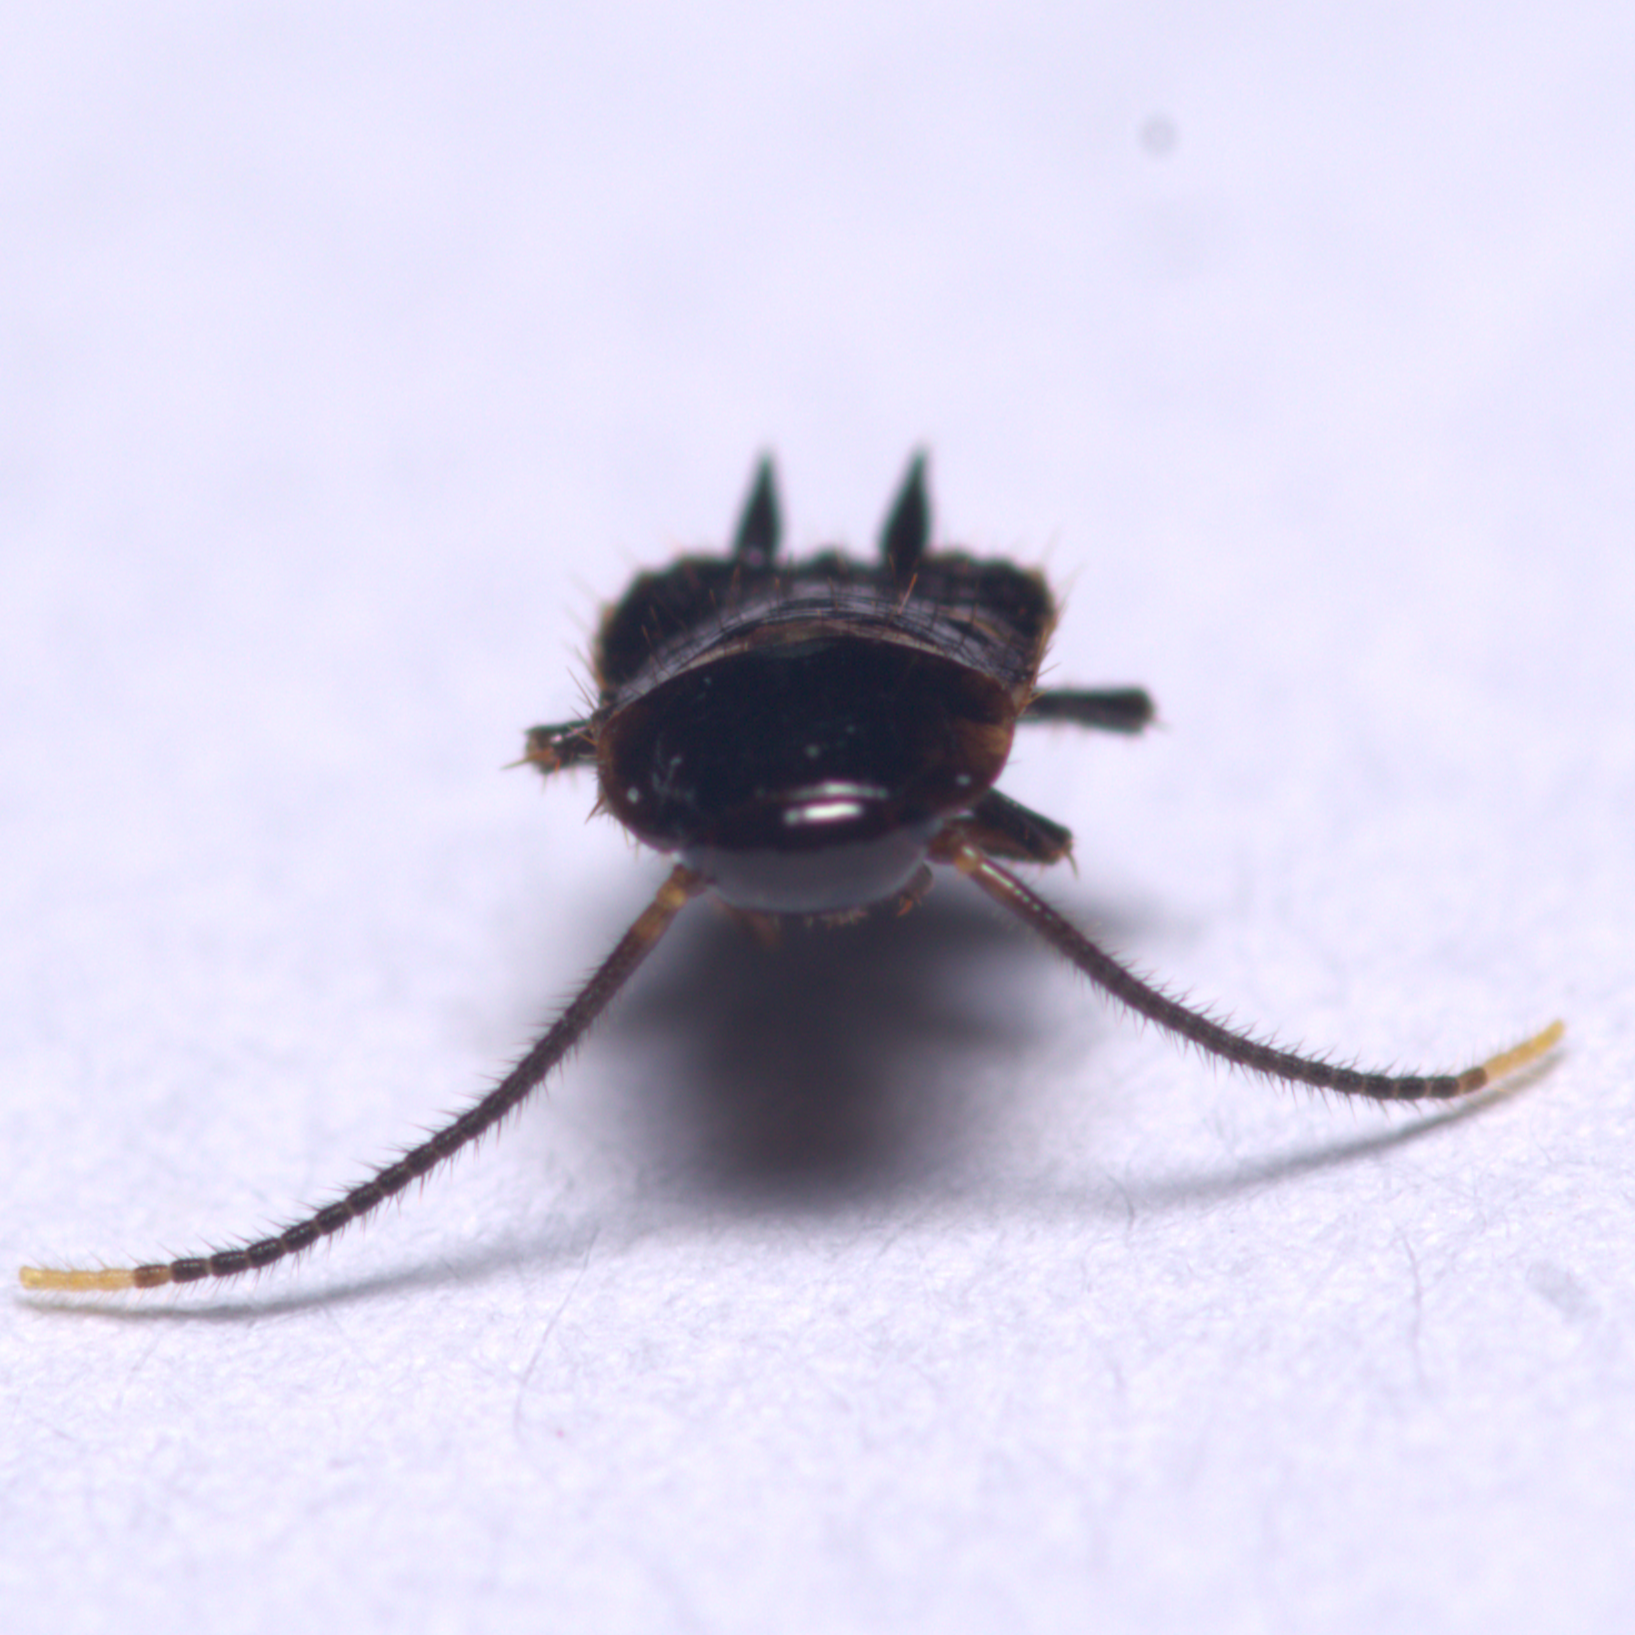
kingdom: Animalia
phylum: Arthropoda
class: Insecta
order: Blattodea
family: Blattidae
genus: Periplaneta
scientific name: Periplaneta fuliginosa
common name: Smokeybrown cockroad
